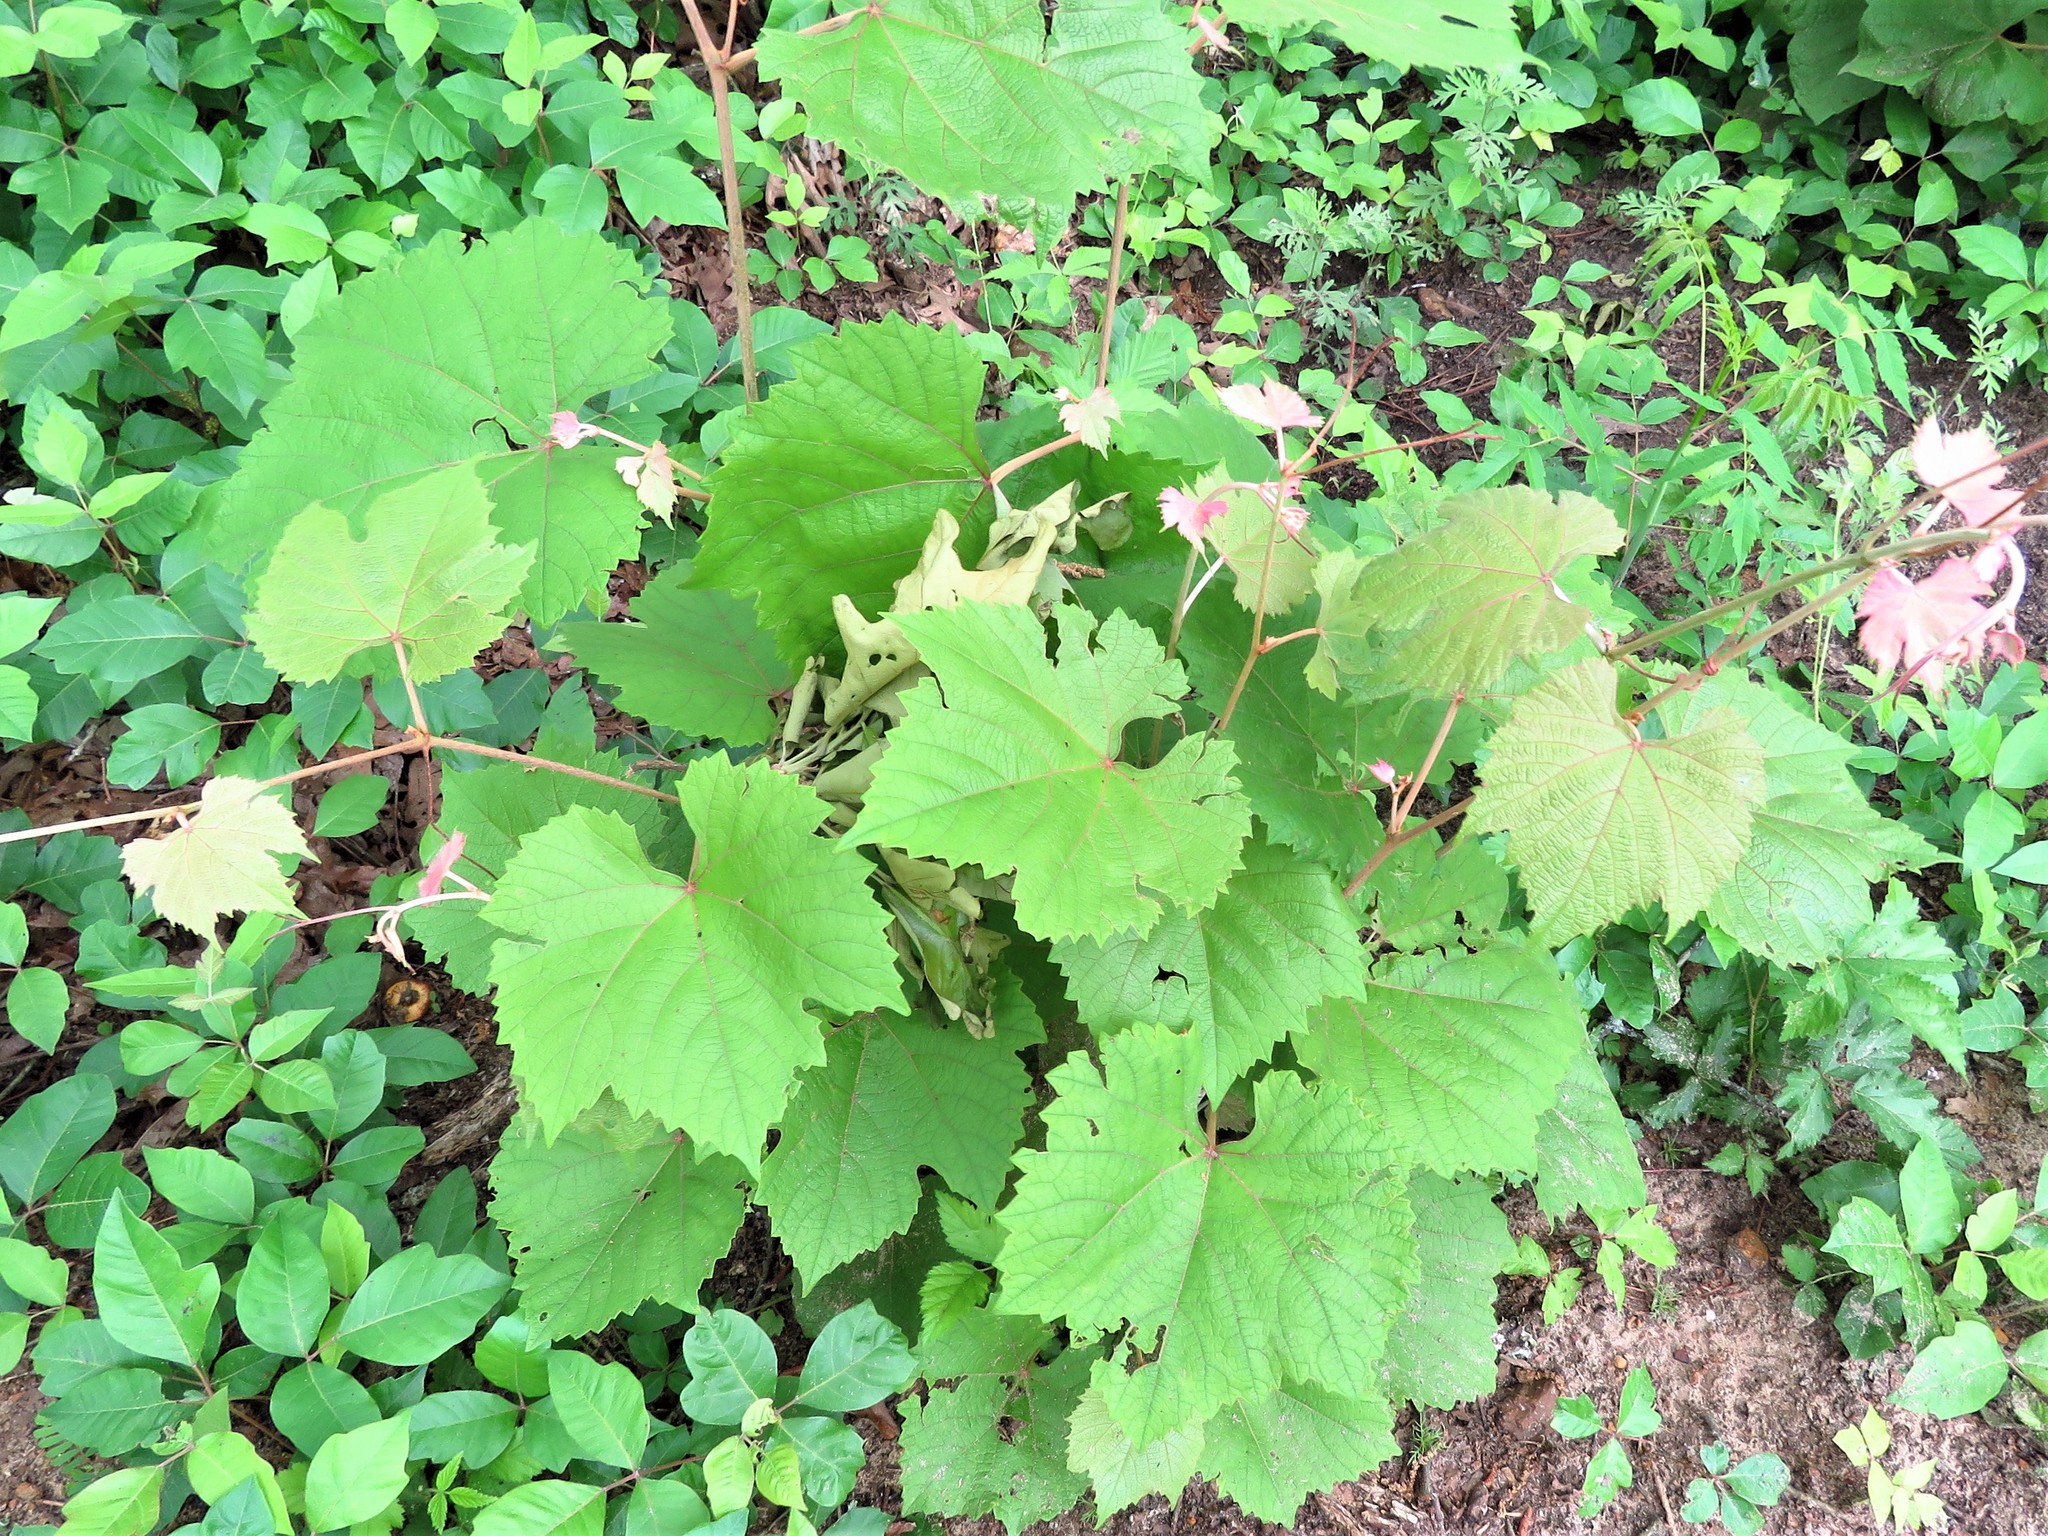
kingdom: Plantae
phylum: Tracheophyta
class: Magnoliopsida
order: Vitales
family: Vitaceae
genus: Vitis
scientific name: Vitis aestivalis
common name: Pigeon grape
